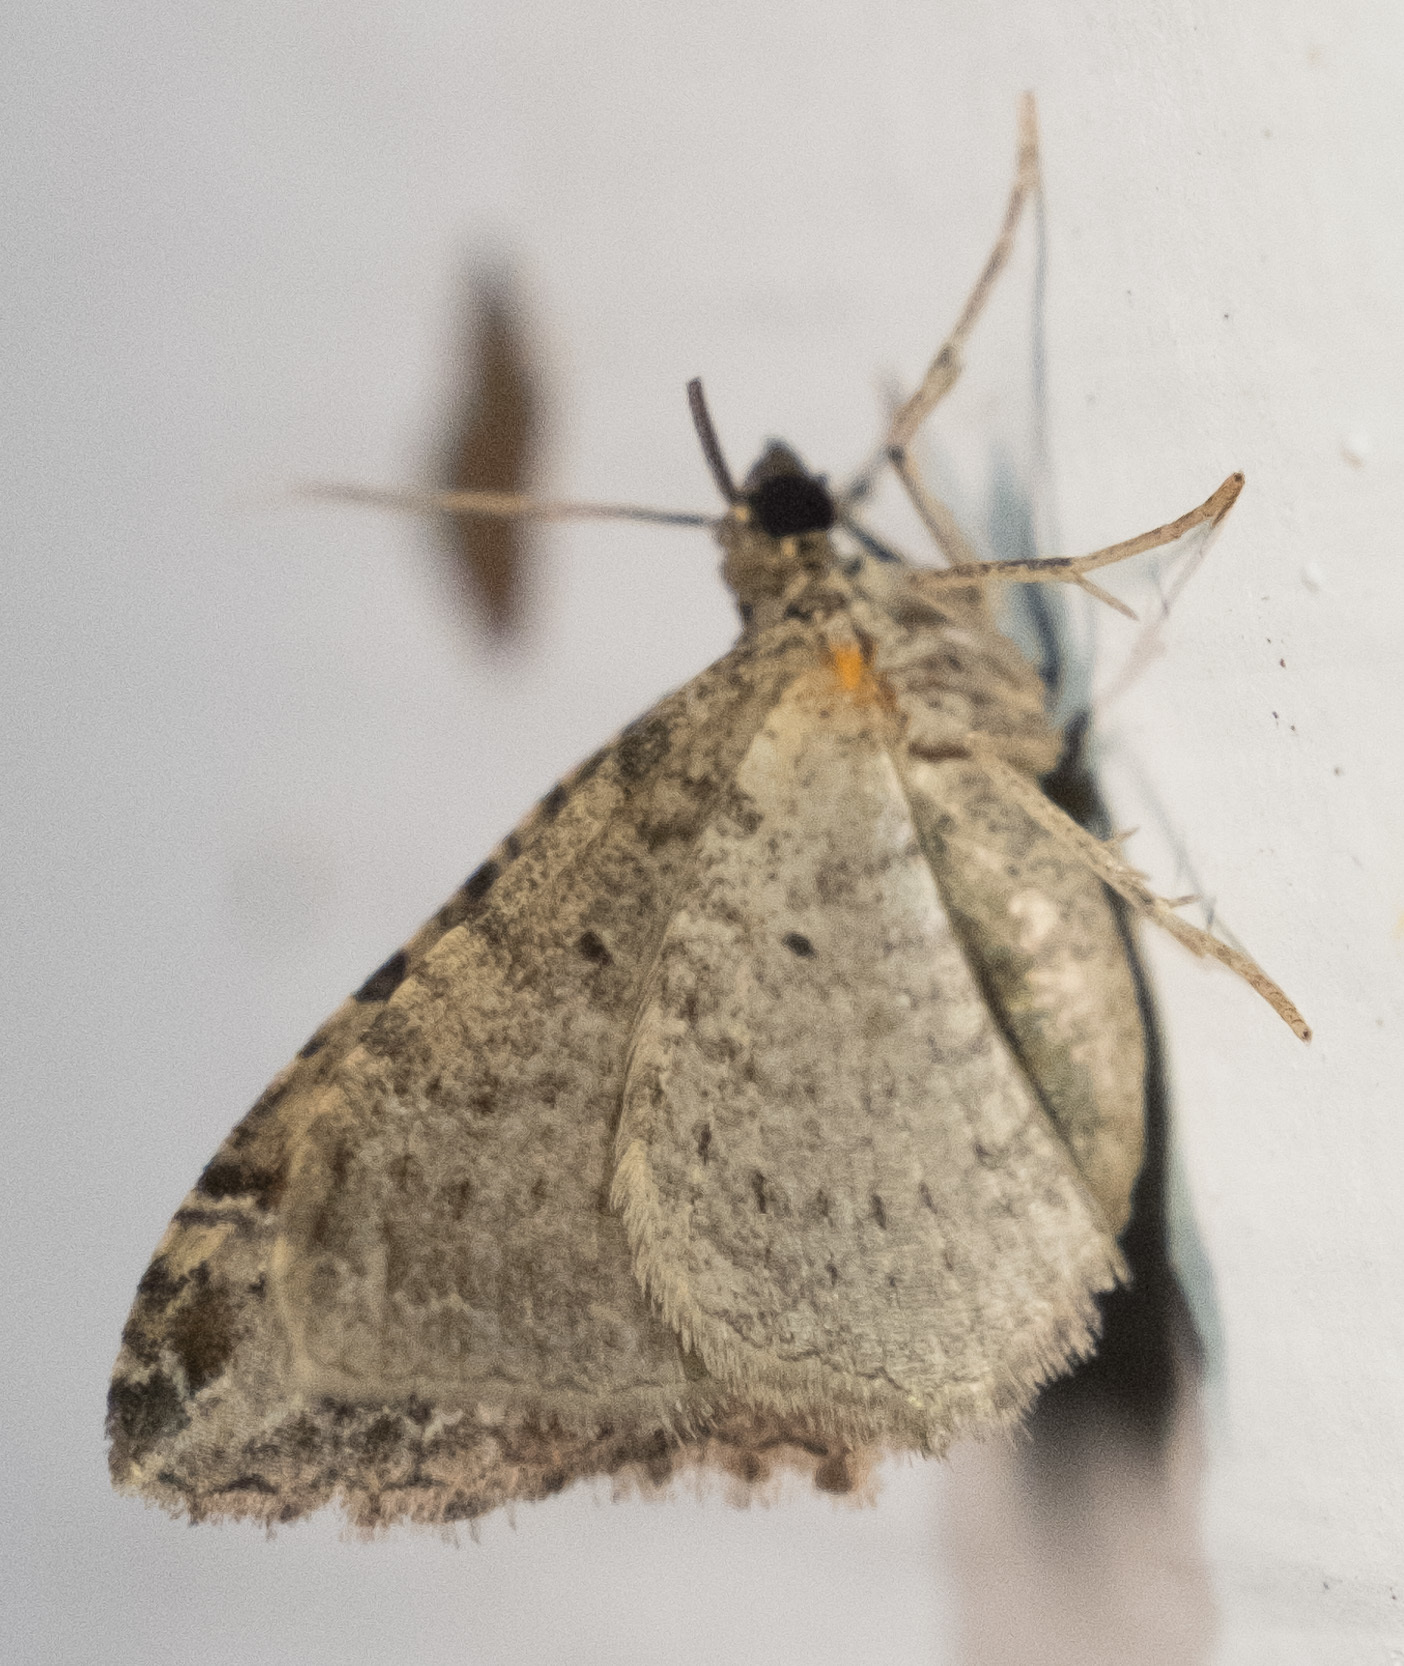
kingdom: Animalia
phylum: Arthropoda
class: Insecta
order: Lepidoptera
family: Geometridae
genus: Costaconvexa
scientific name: Costaconvexa centrostrigaria
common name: Bent-line carpet
